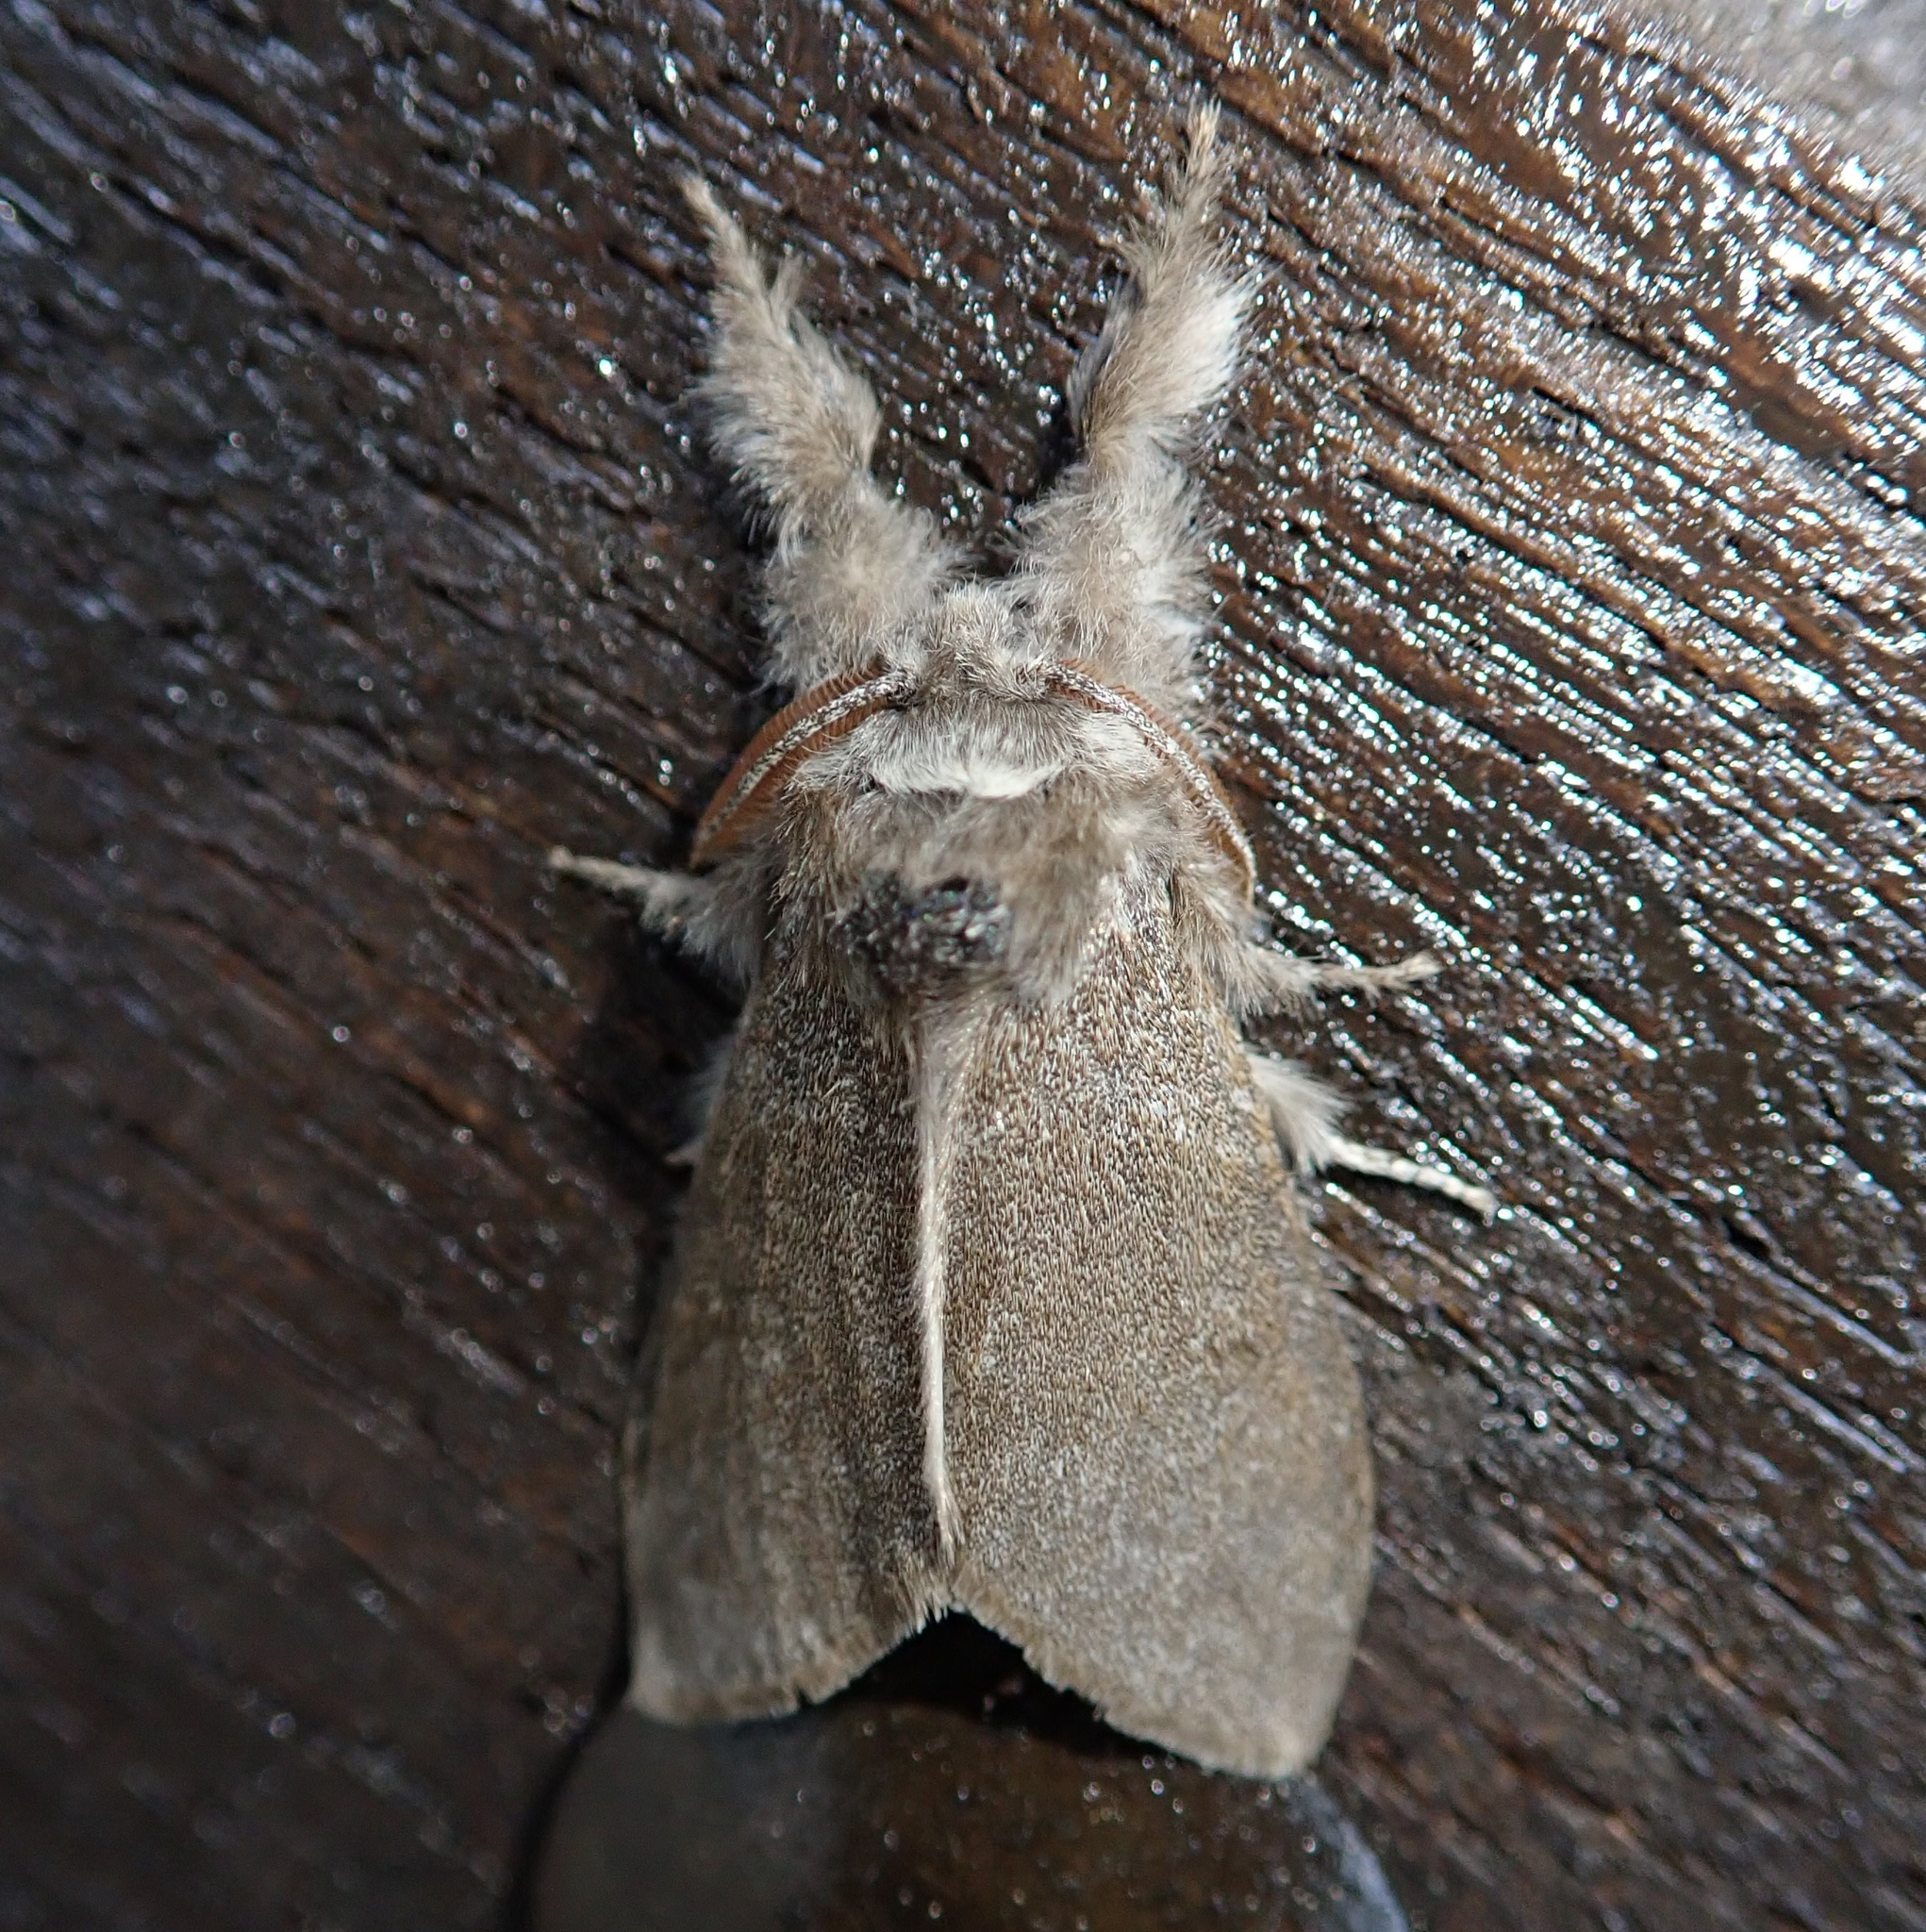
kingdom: Animalia
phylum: Arthropoda
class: Insecta
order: Lepidoptera
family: Erebidae
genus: Calliteara
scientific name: Calliteara pudibunda
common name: Pale tussock
